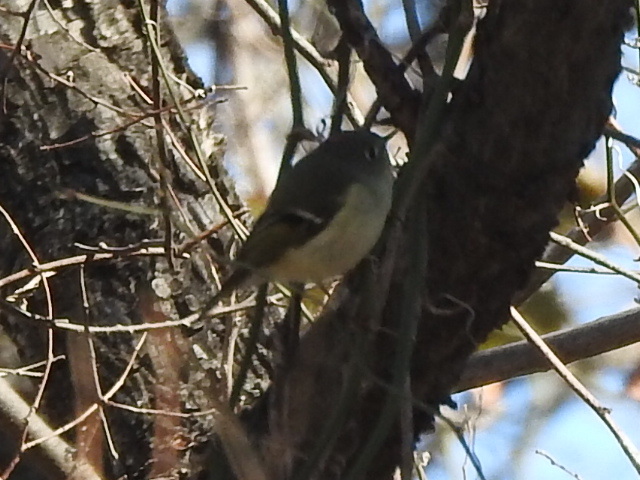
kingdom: Animalia
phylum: Chordata
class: Aves
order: Passeriformes
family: Regulidae
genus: Regulus
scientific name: Regulus calendula
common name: Ruby-crowned kinglet
